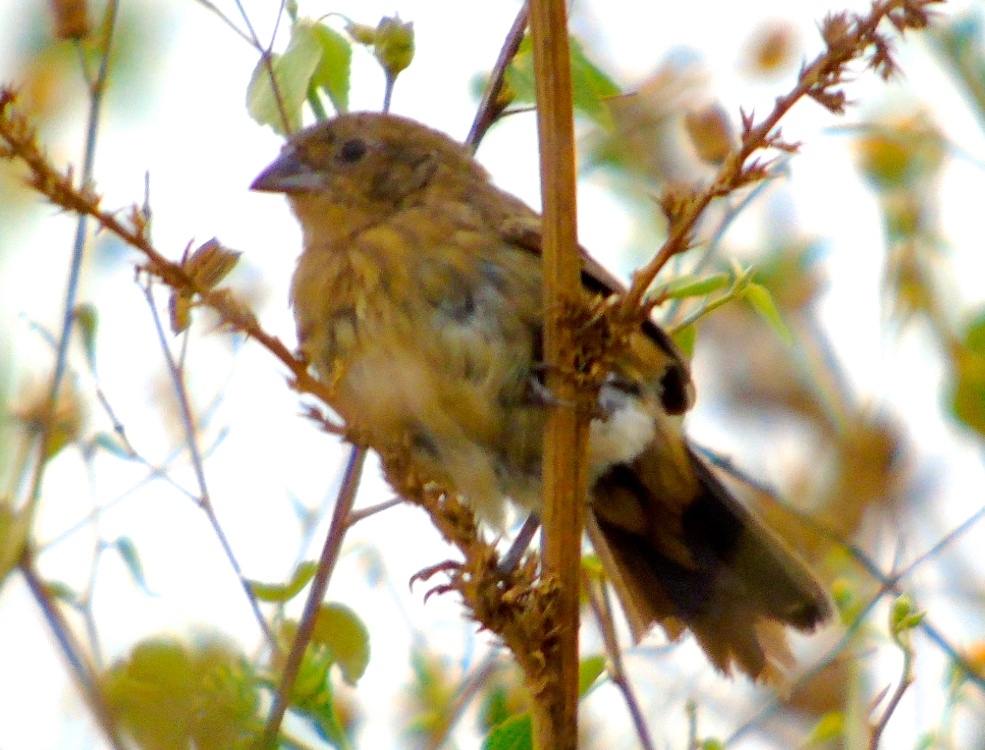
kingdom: Animalia
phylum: Chordata
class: Aves
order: Passeriformes
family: Thraupidae
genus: Volatinia
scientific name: Volatinia jacarina
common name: Blue-black grassquit
